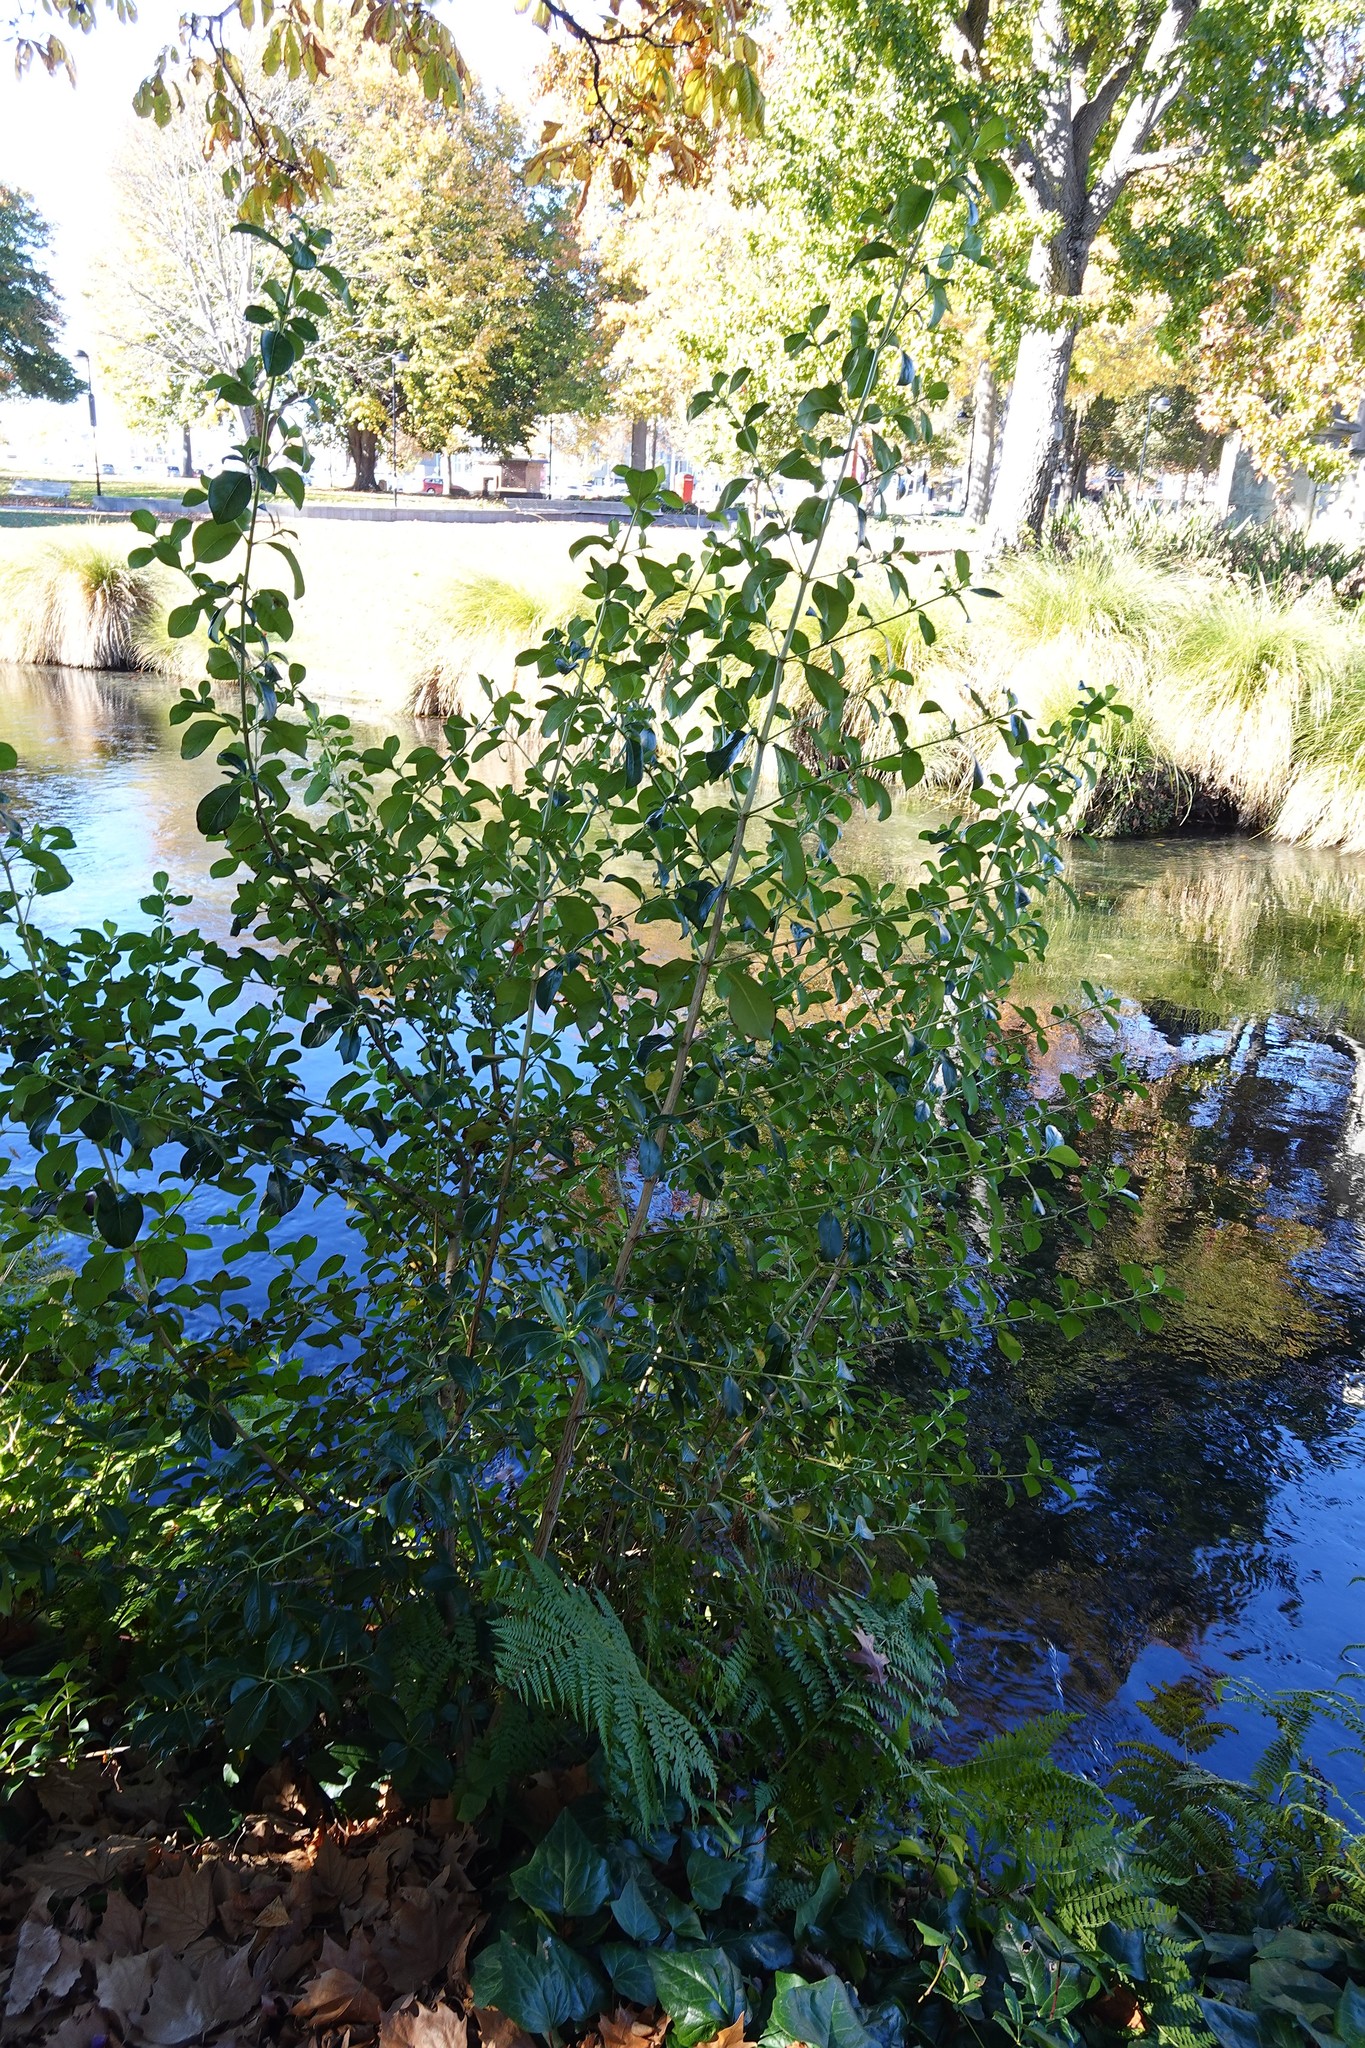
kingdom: Plantae
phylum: Tracheophyta
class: Magnoliopsida
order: Gentianales
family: Rubiaceae
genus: Coprosma
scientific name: Coprosma robusta
